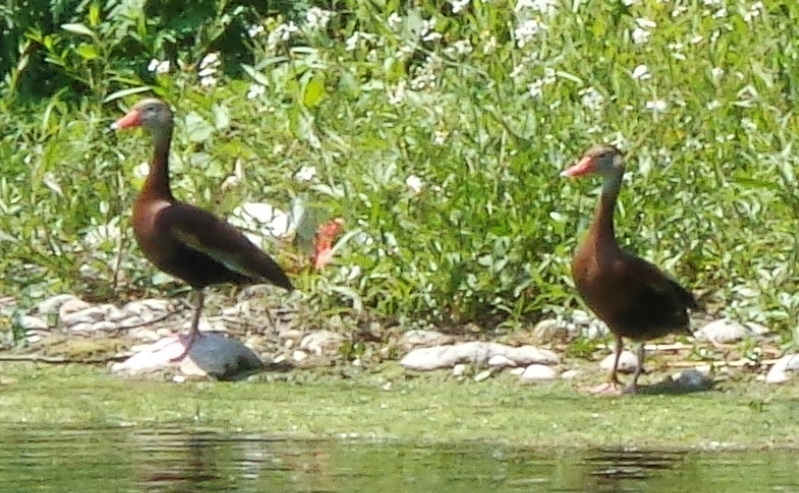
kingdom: Animalia
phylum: Chordata
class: Aves
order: Anseriformes
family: Anatidae
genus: Dendrocygna
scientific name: Dendrocygna autumnalis
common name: Black-bellied whistling duck
